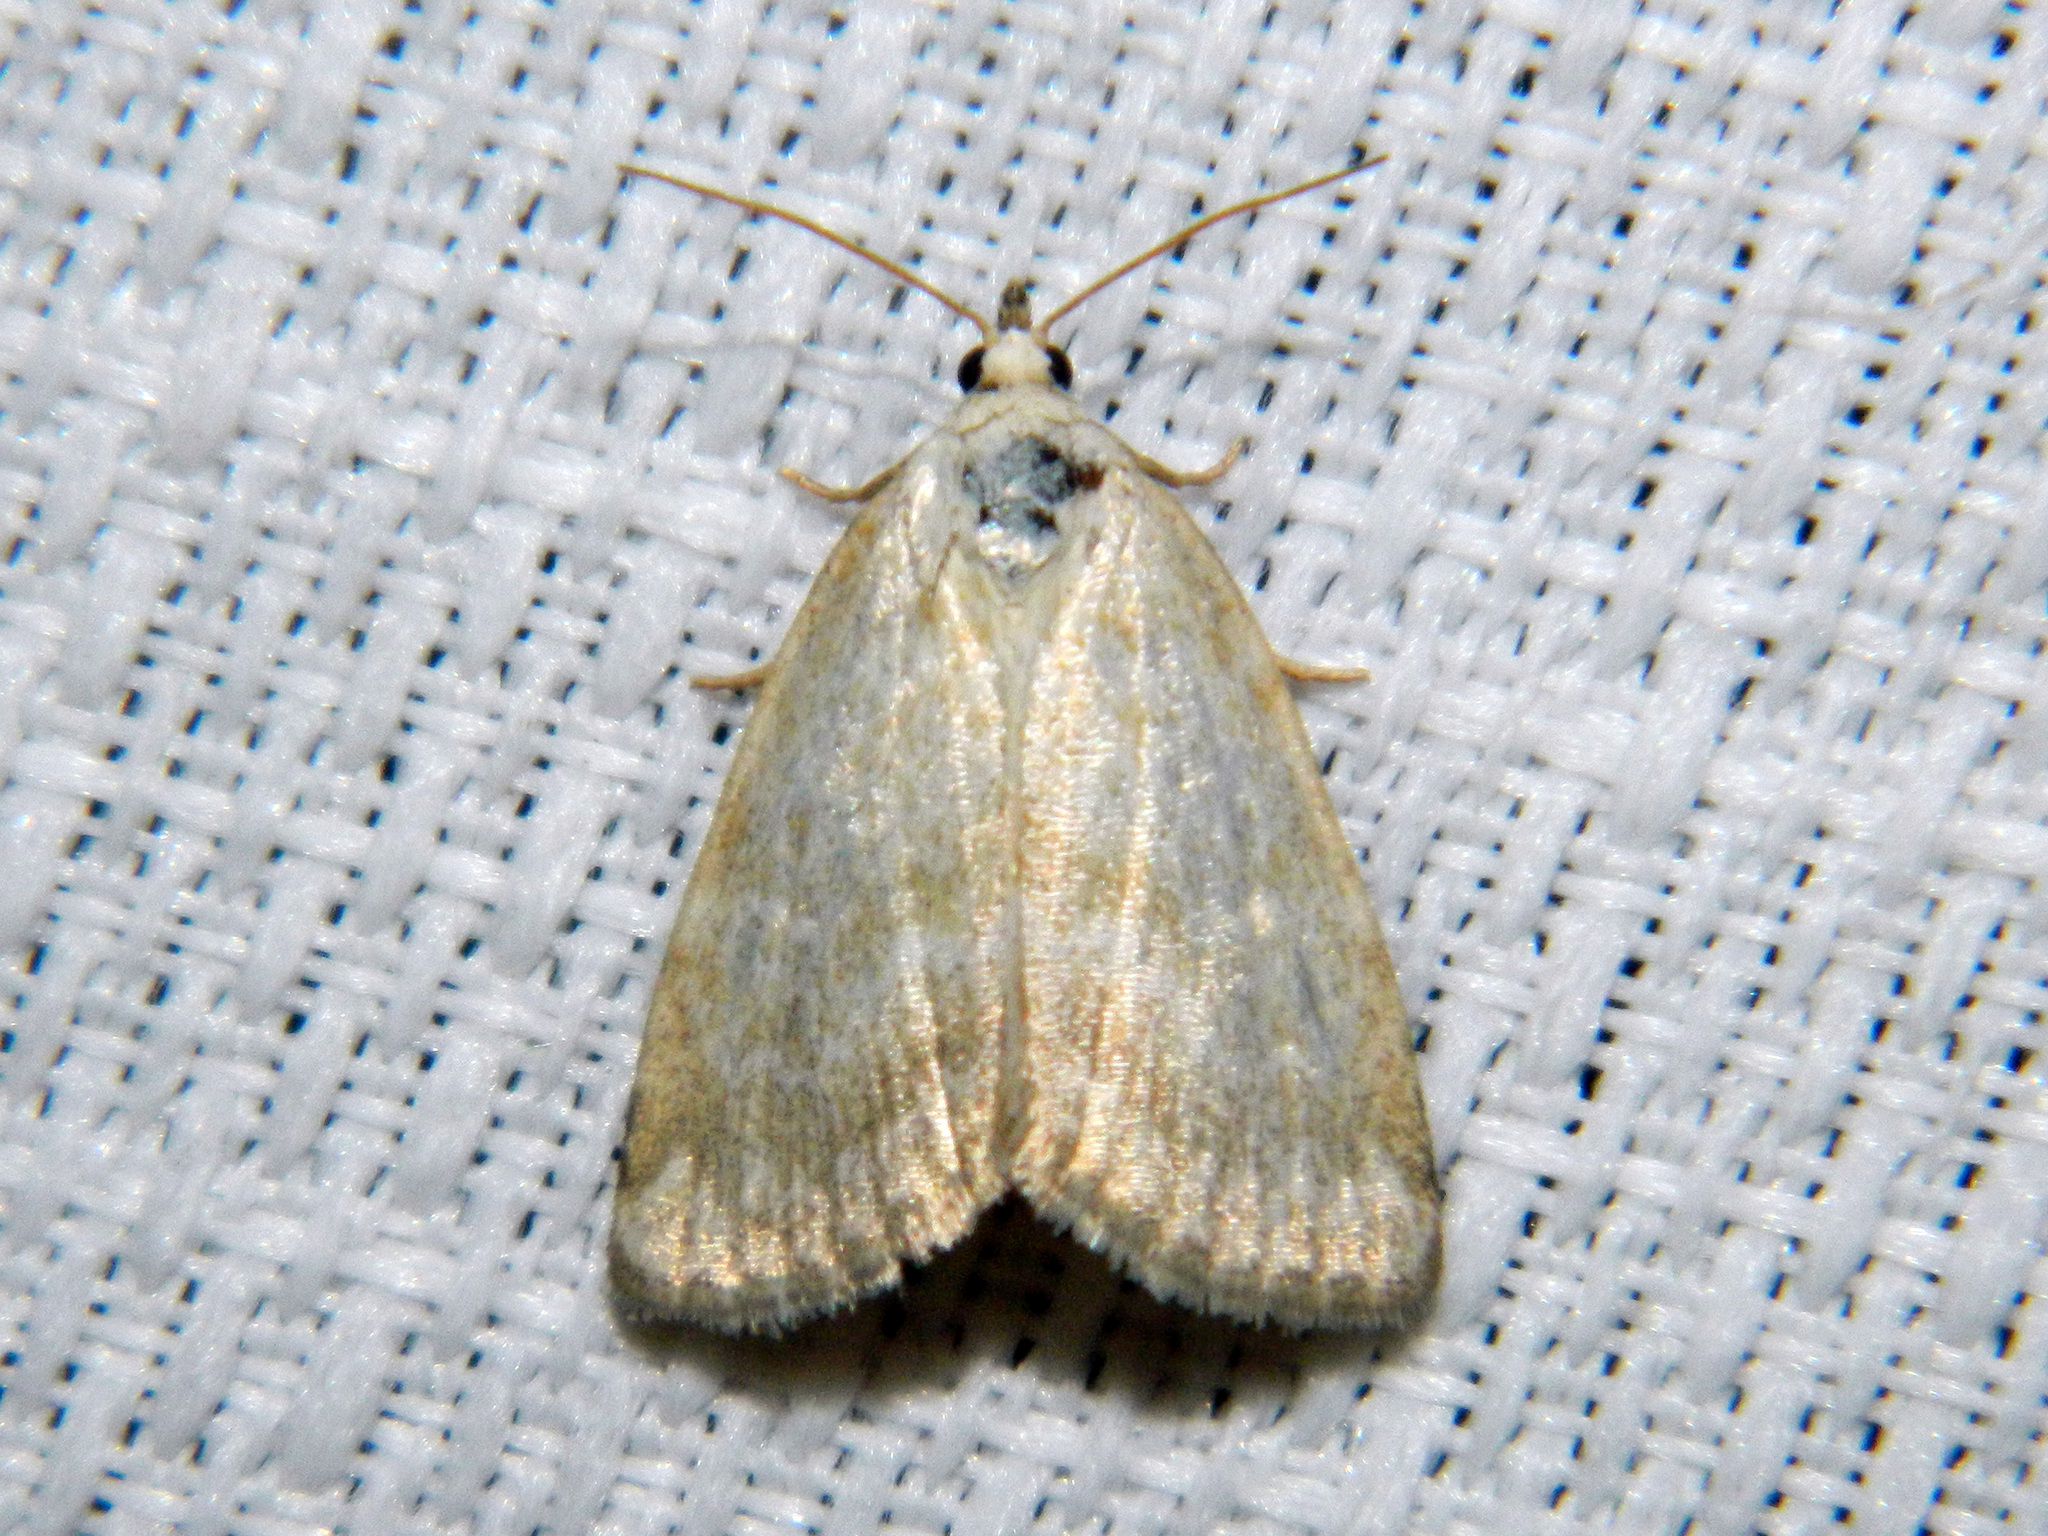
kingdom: Animalia
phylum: Arthropoda
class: Insecta
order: Lepidoptera
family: Noctuidae
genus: Protodeltote
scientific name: Protodeltote albidula
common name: Pale glyph
